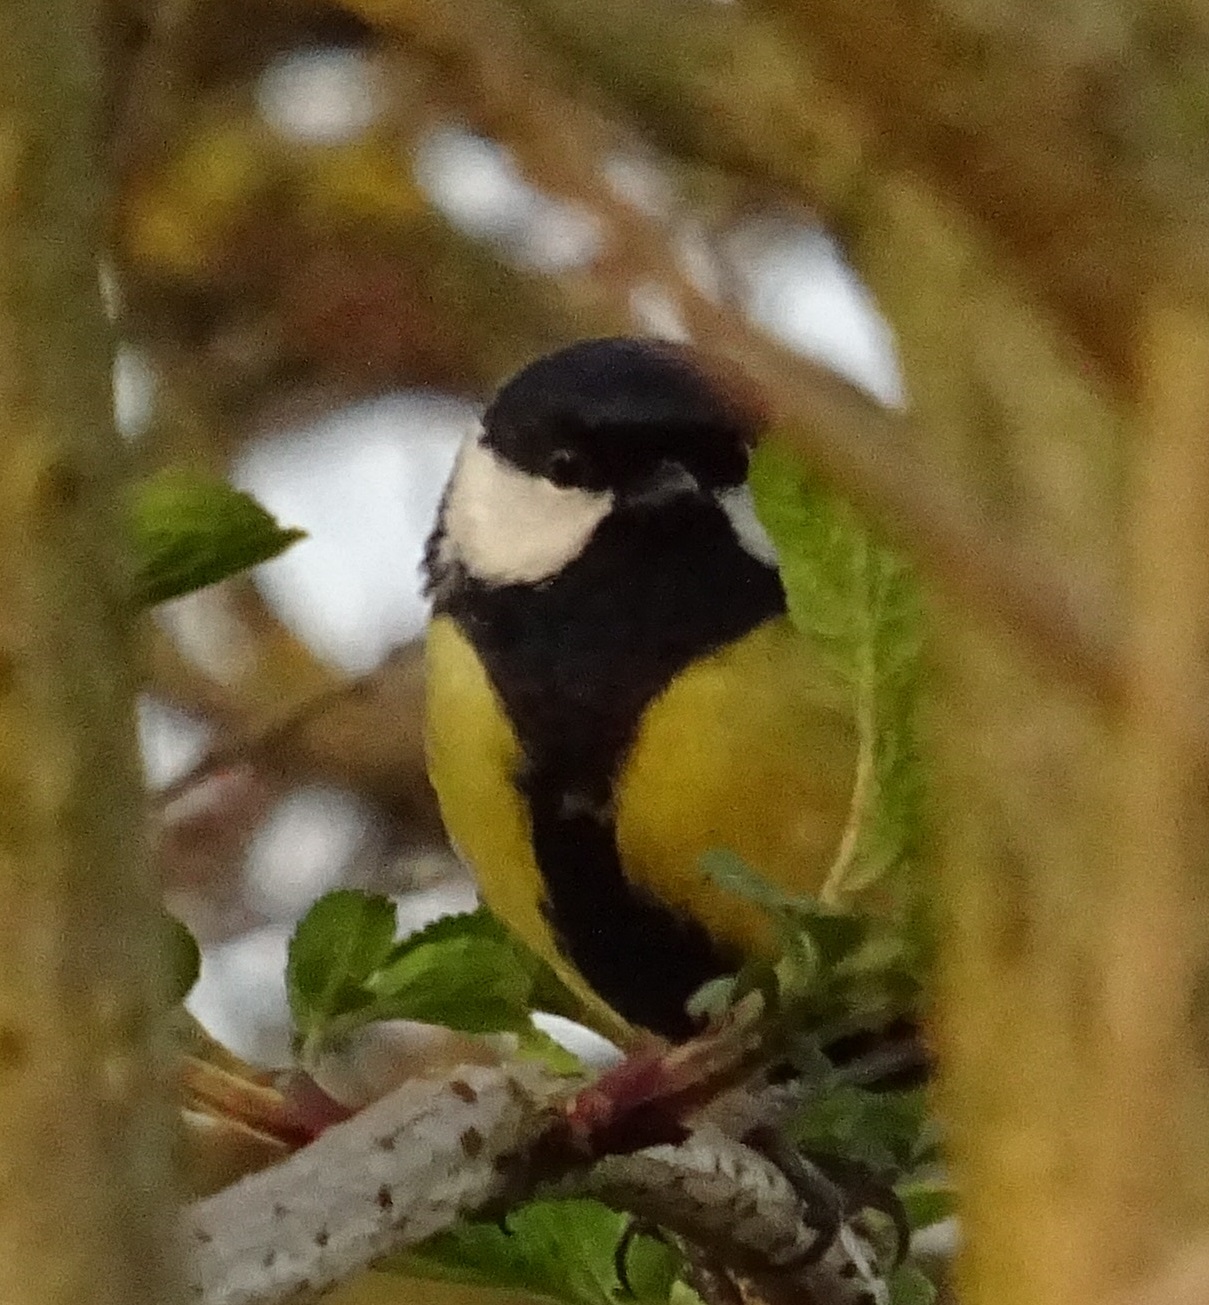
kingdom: Animalia
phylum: Chordata
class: Aves
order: Passeriformes
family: Paridae
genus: Parus
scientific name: Parus major
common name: Great tit
